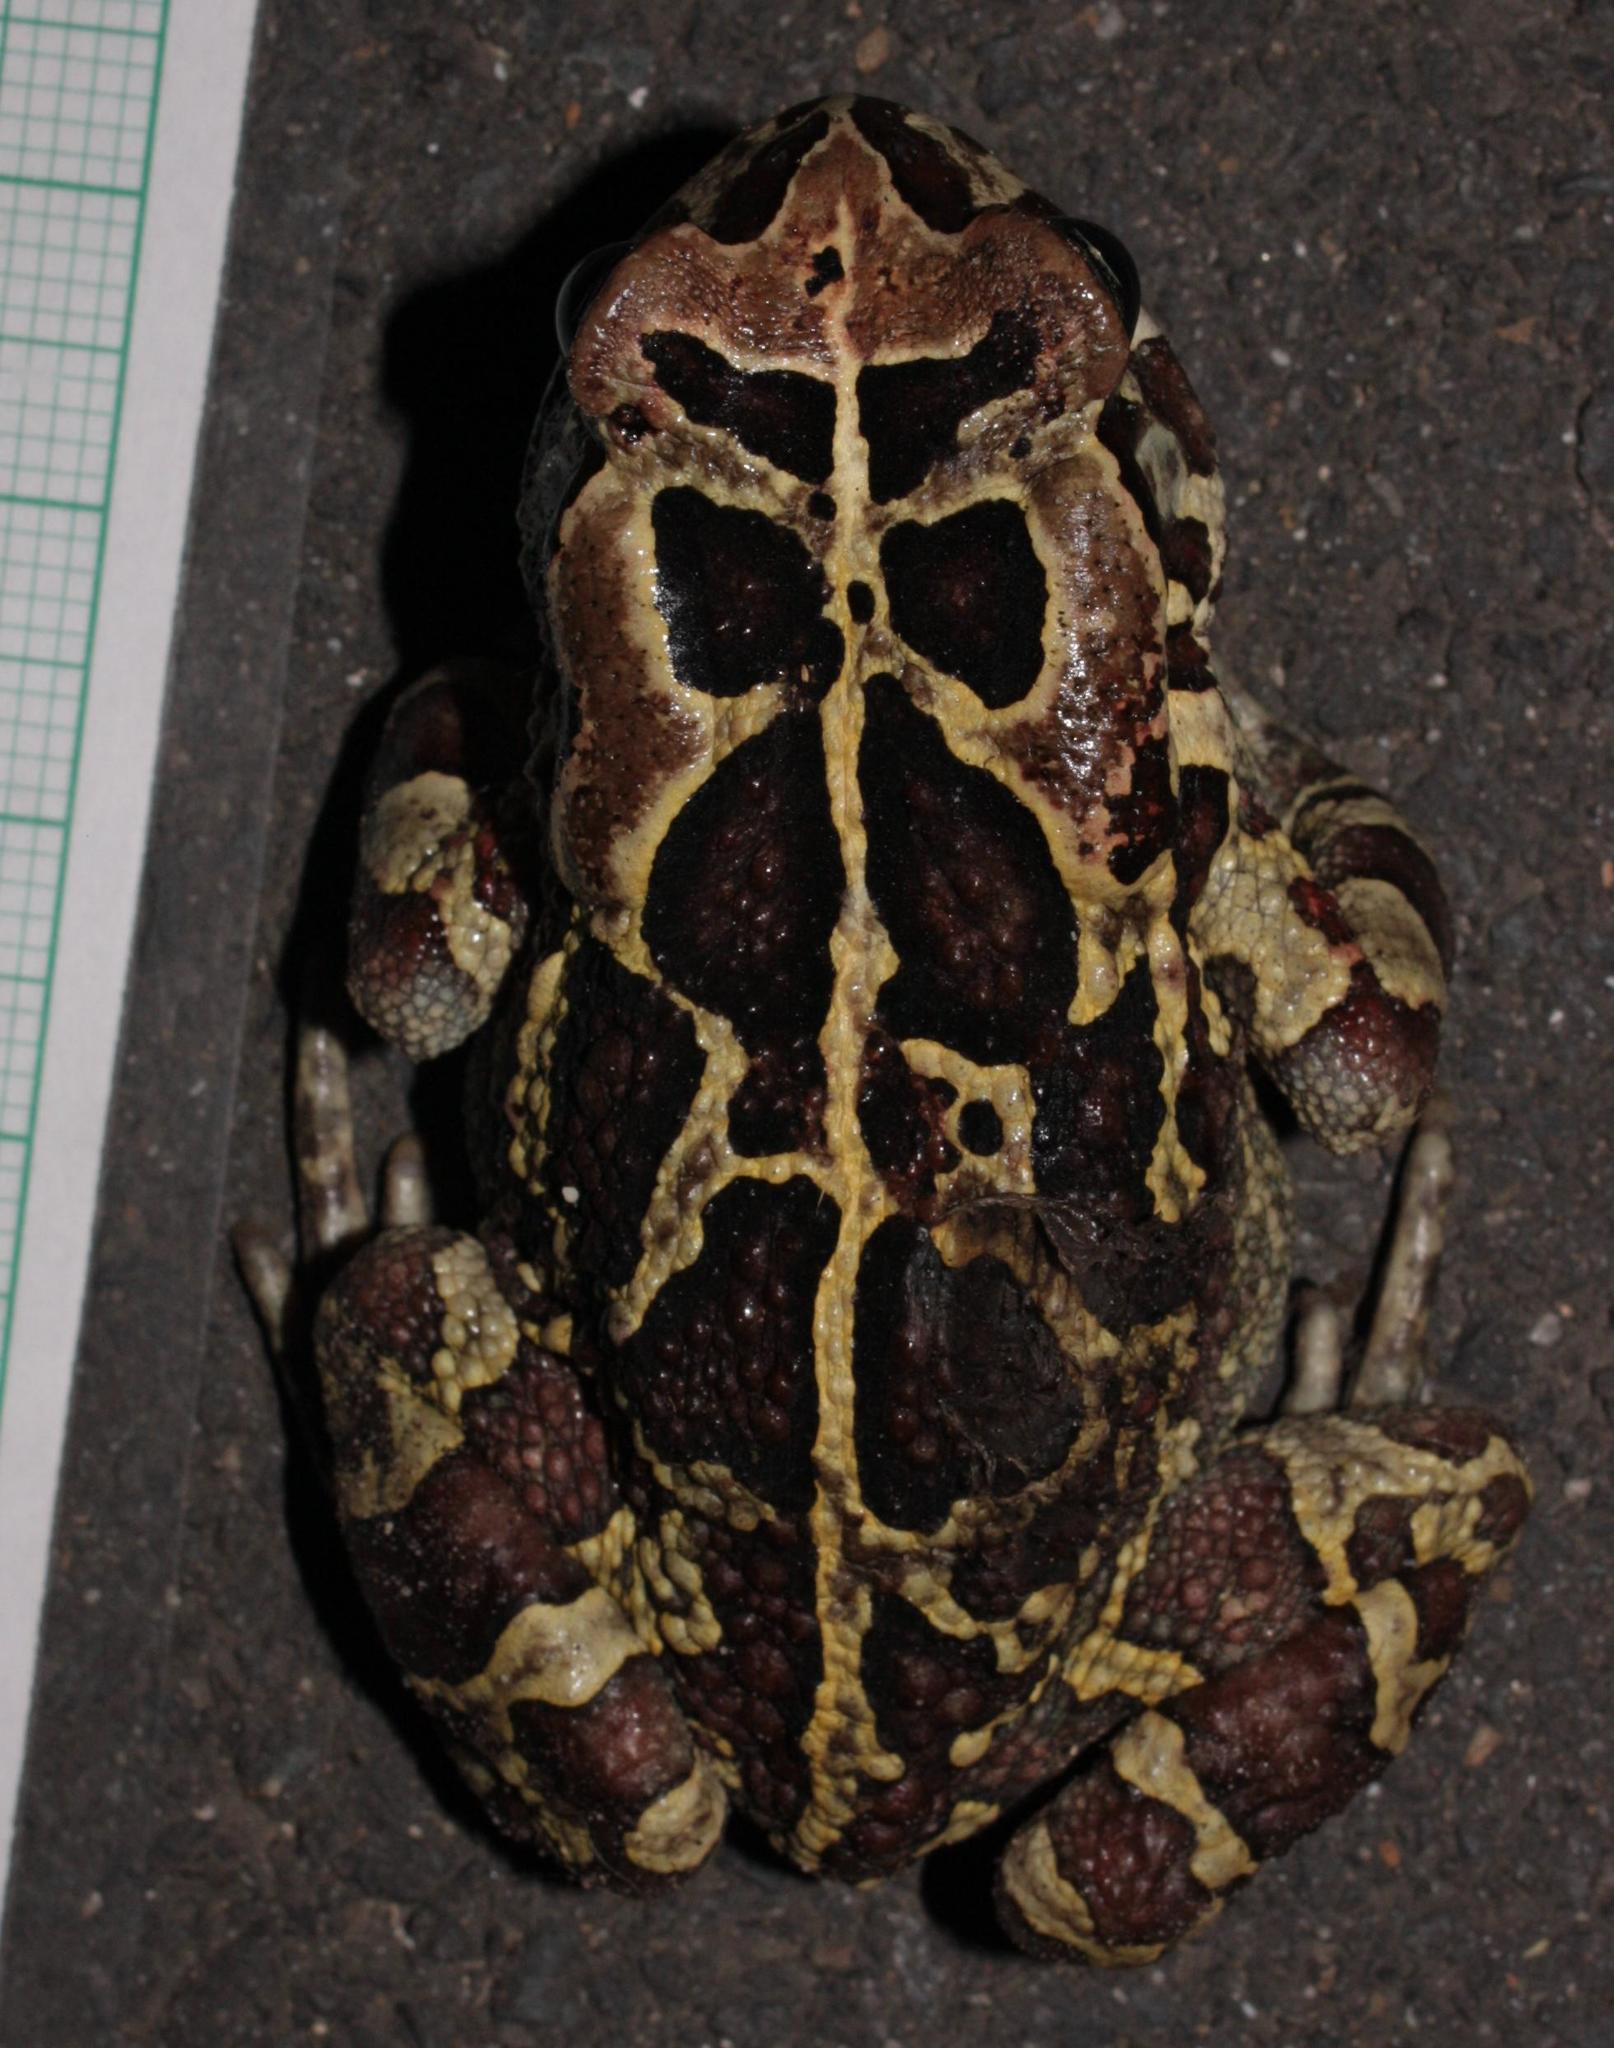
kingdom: Animalia
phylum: Chordata
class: Amphibia
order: Anura
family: Bufonidae
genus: Sclerophrys
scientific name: Sclerophrys pantherina
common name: Panther toad
